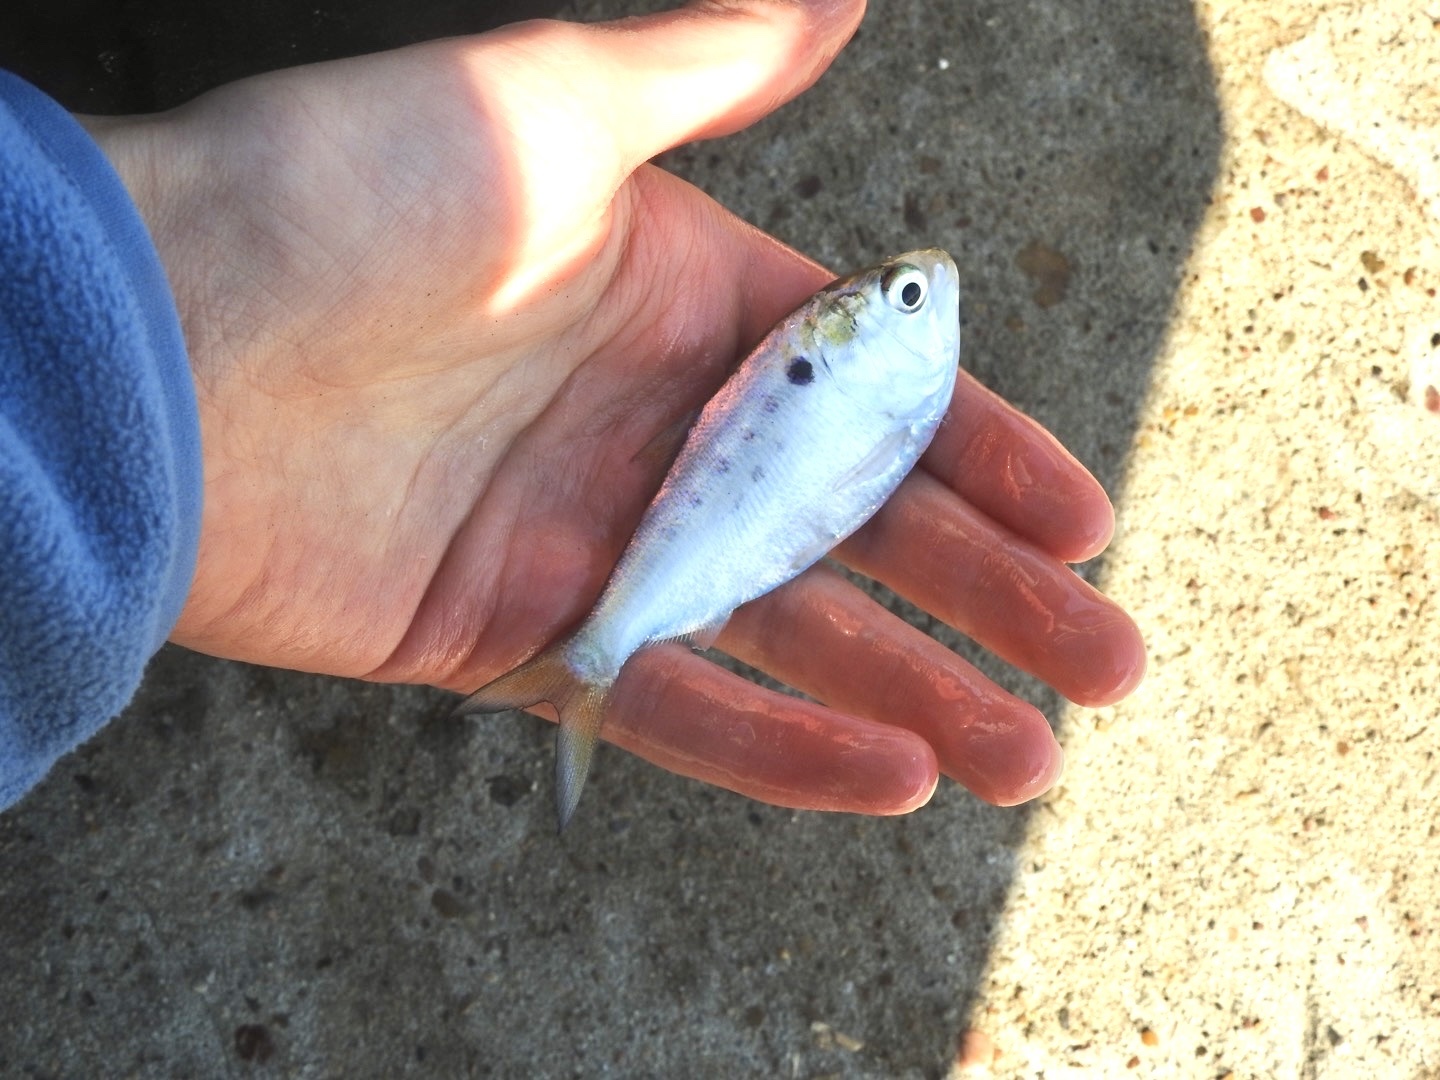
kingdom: Animalia
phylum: Chordata
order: Clupeiformes
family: Clupeidae
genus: Brevoortia
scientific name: Brevoortia patronus
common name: Gulf menhaden
